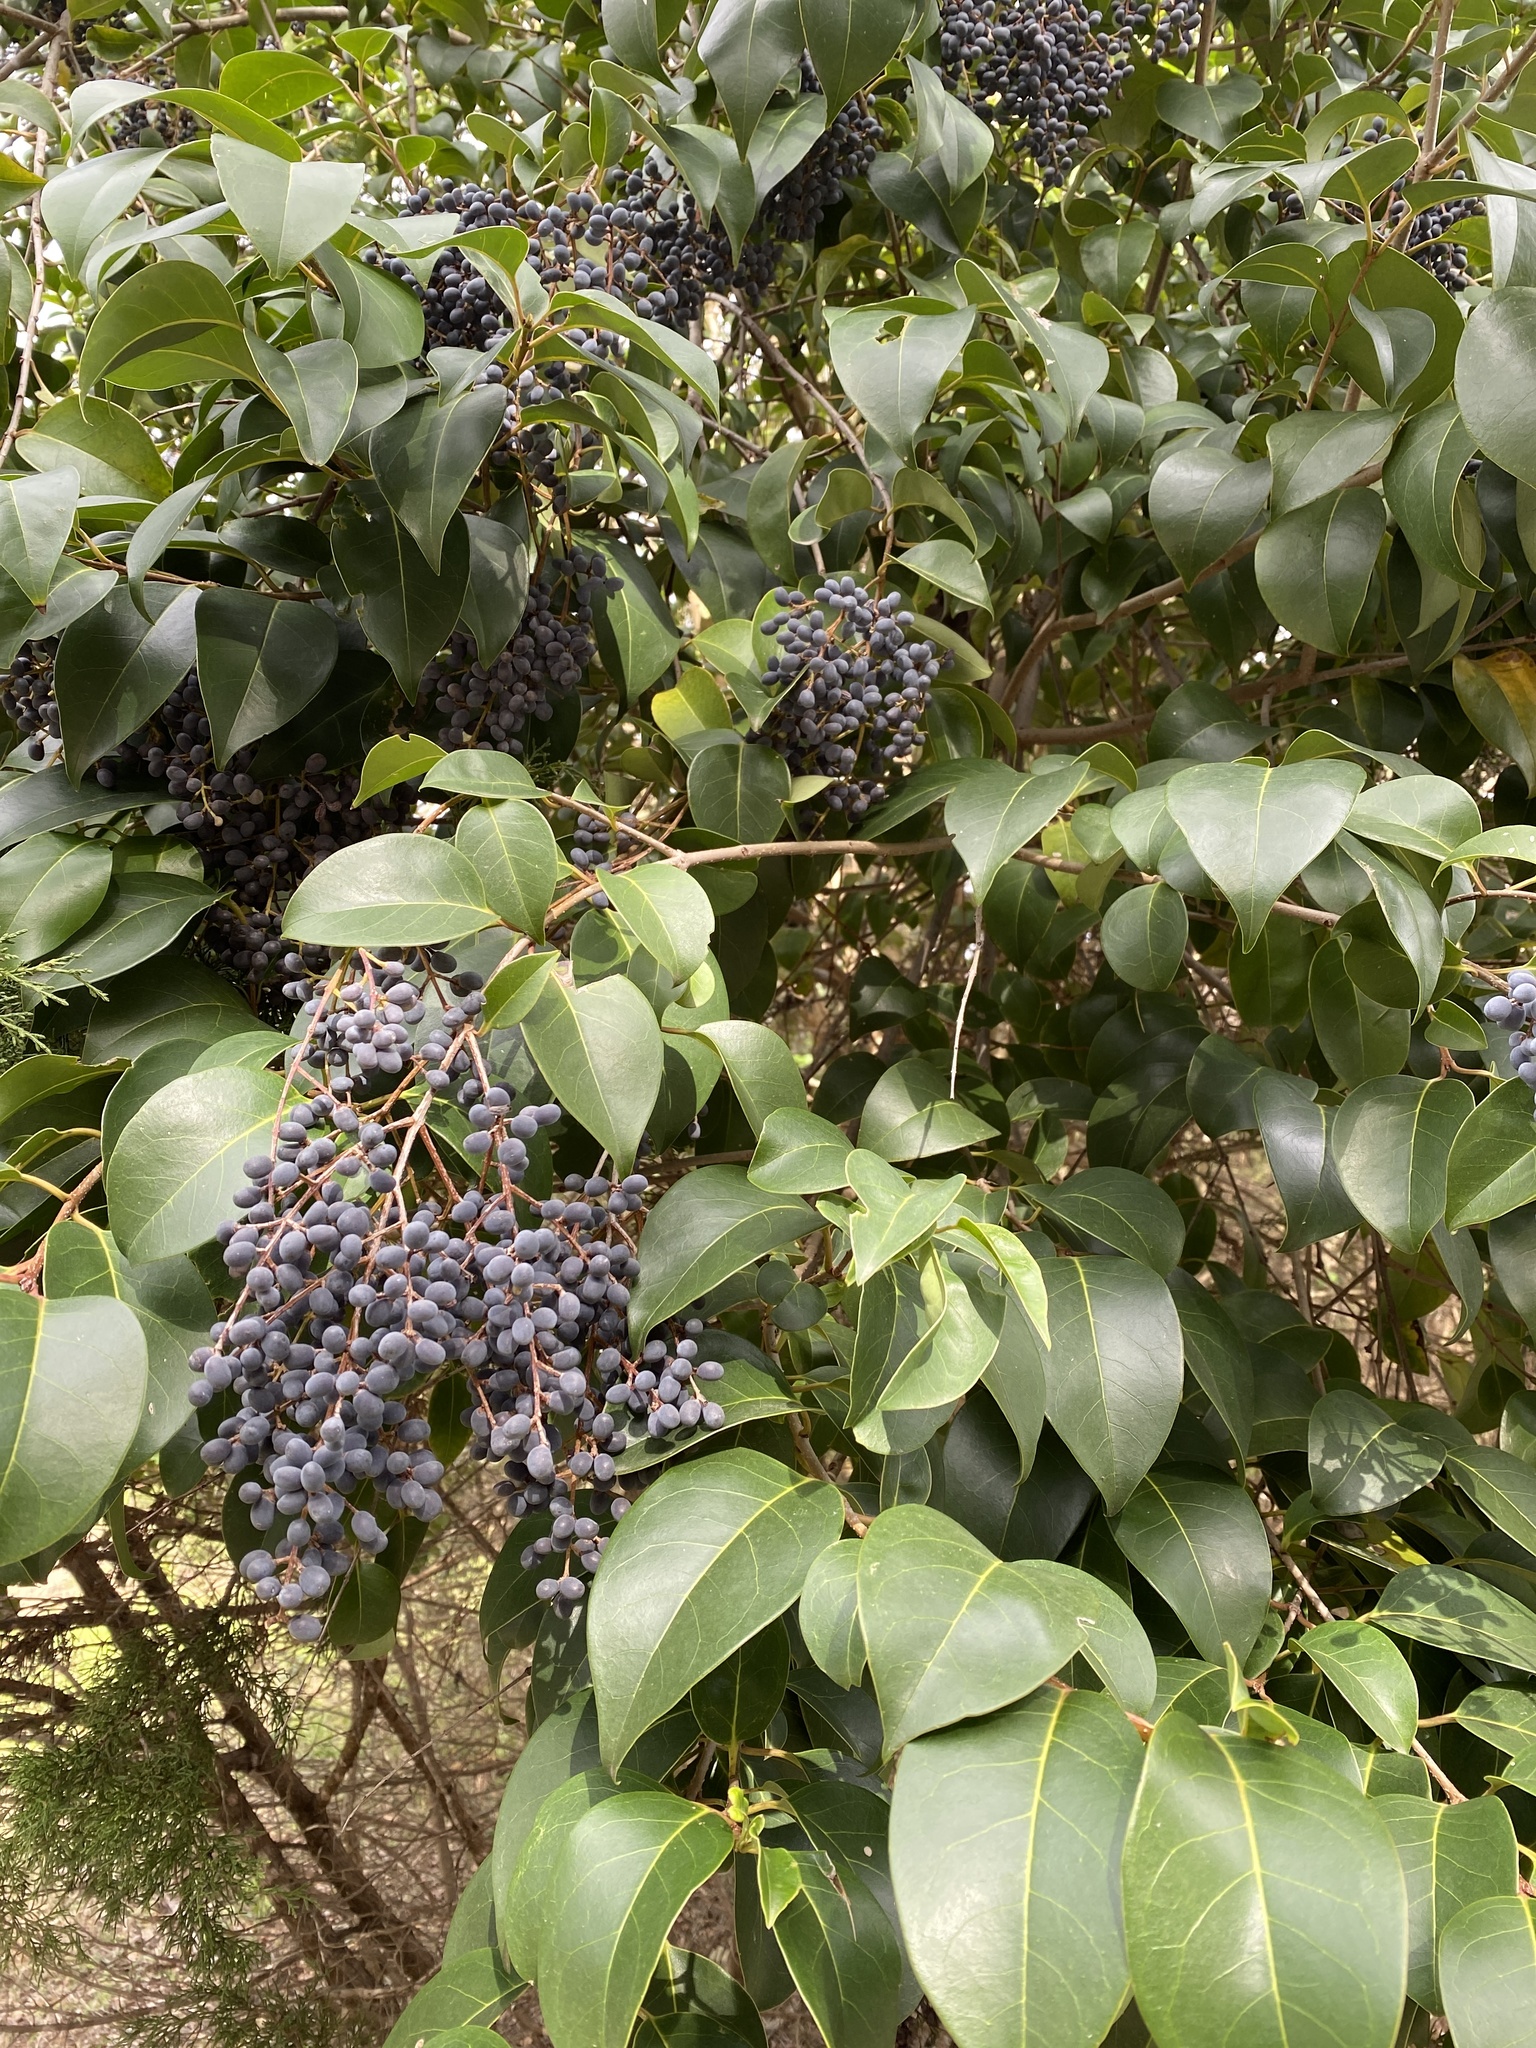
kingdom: Plantae
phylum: Tracheophyta
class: Magnoliopsida
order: Lamiales
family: Oleaceae
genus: Ligustrum
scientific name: Ligustrum lucidum
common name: Glossy privet
